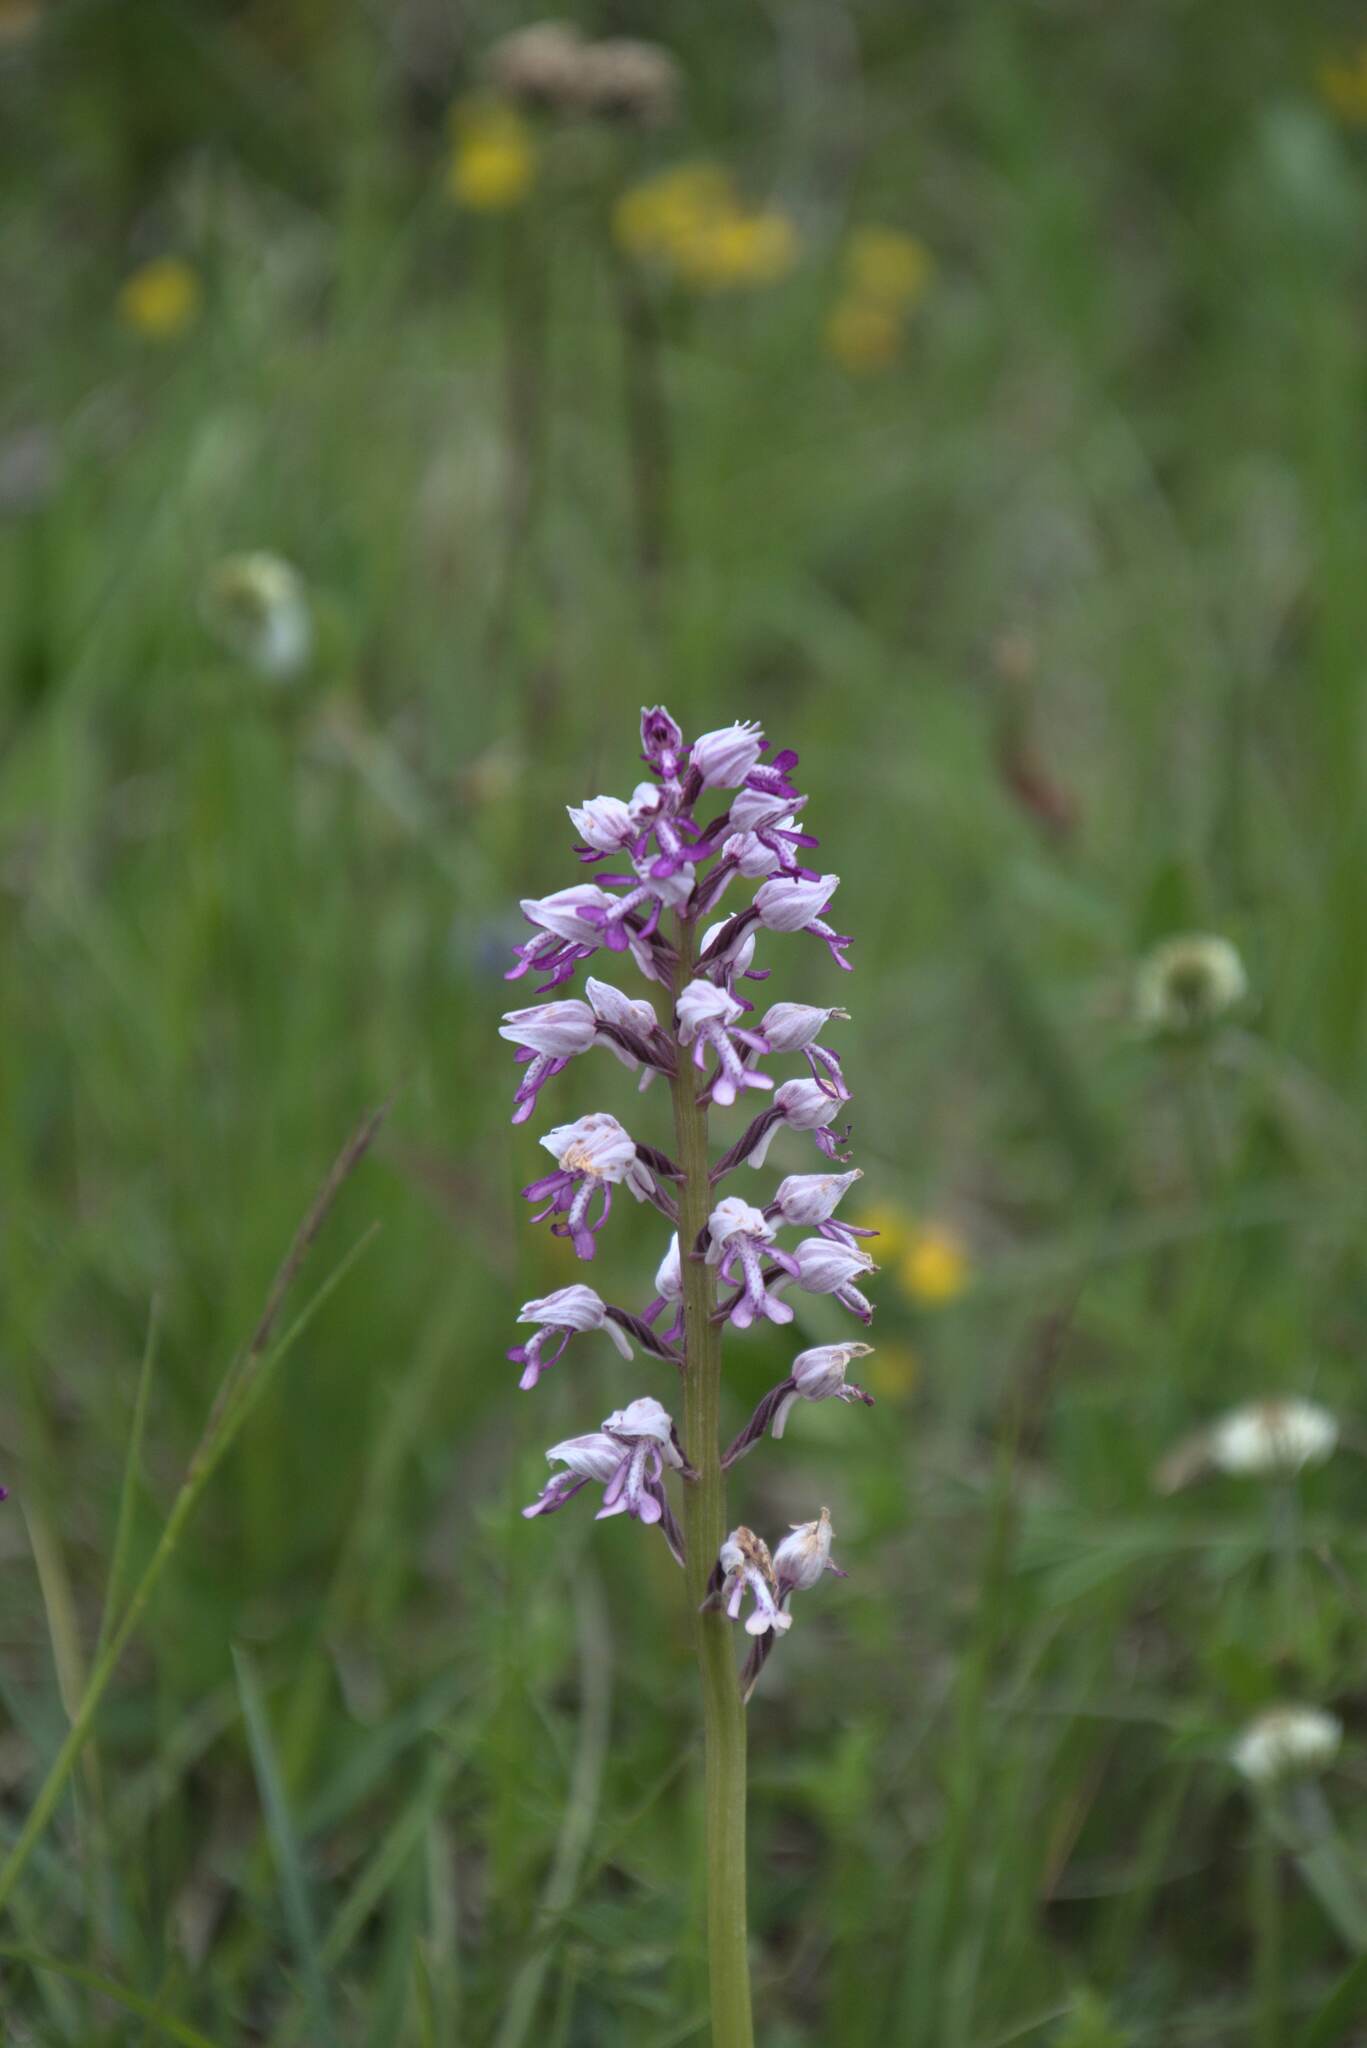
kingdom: Plantae
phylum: Tracheophyta
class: Liliopsida
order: Asparagales
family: Orchidaceae
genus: Orchis
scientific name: Orchis militaris
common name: Military orchid
